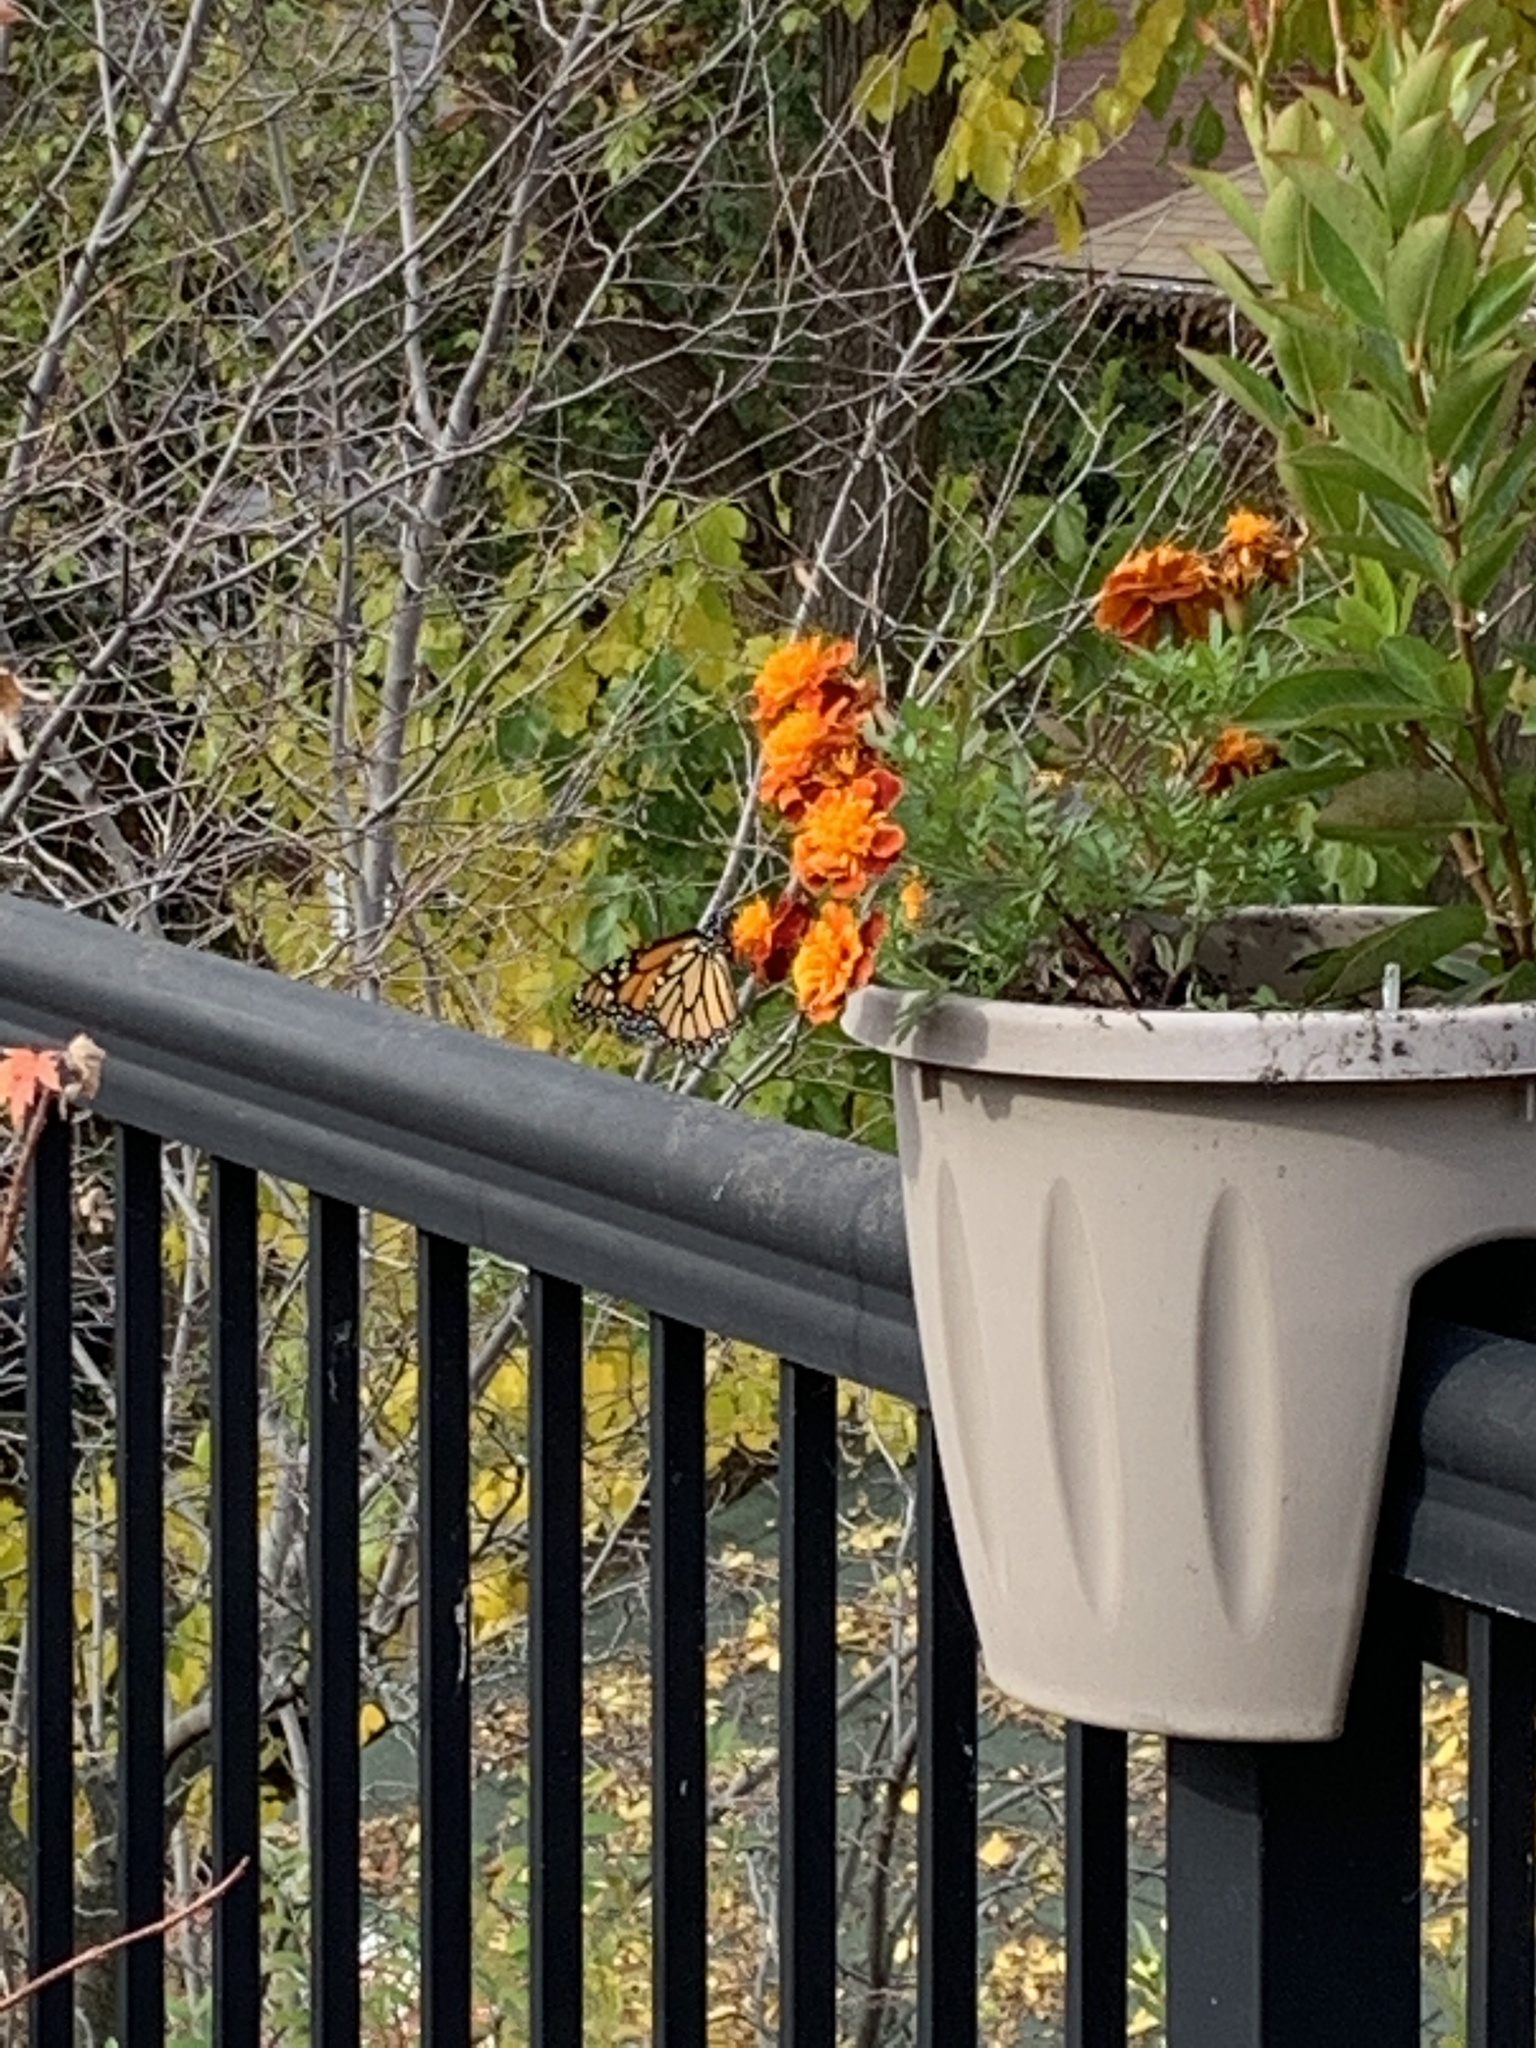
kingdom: Animalia
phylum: Arthropoda
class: Insecta
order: Lepidoptera
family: Nymphalidae
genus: Danaus
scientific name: Danaus plexippus
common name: Monarch
